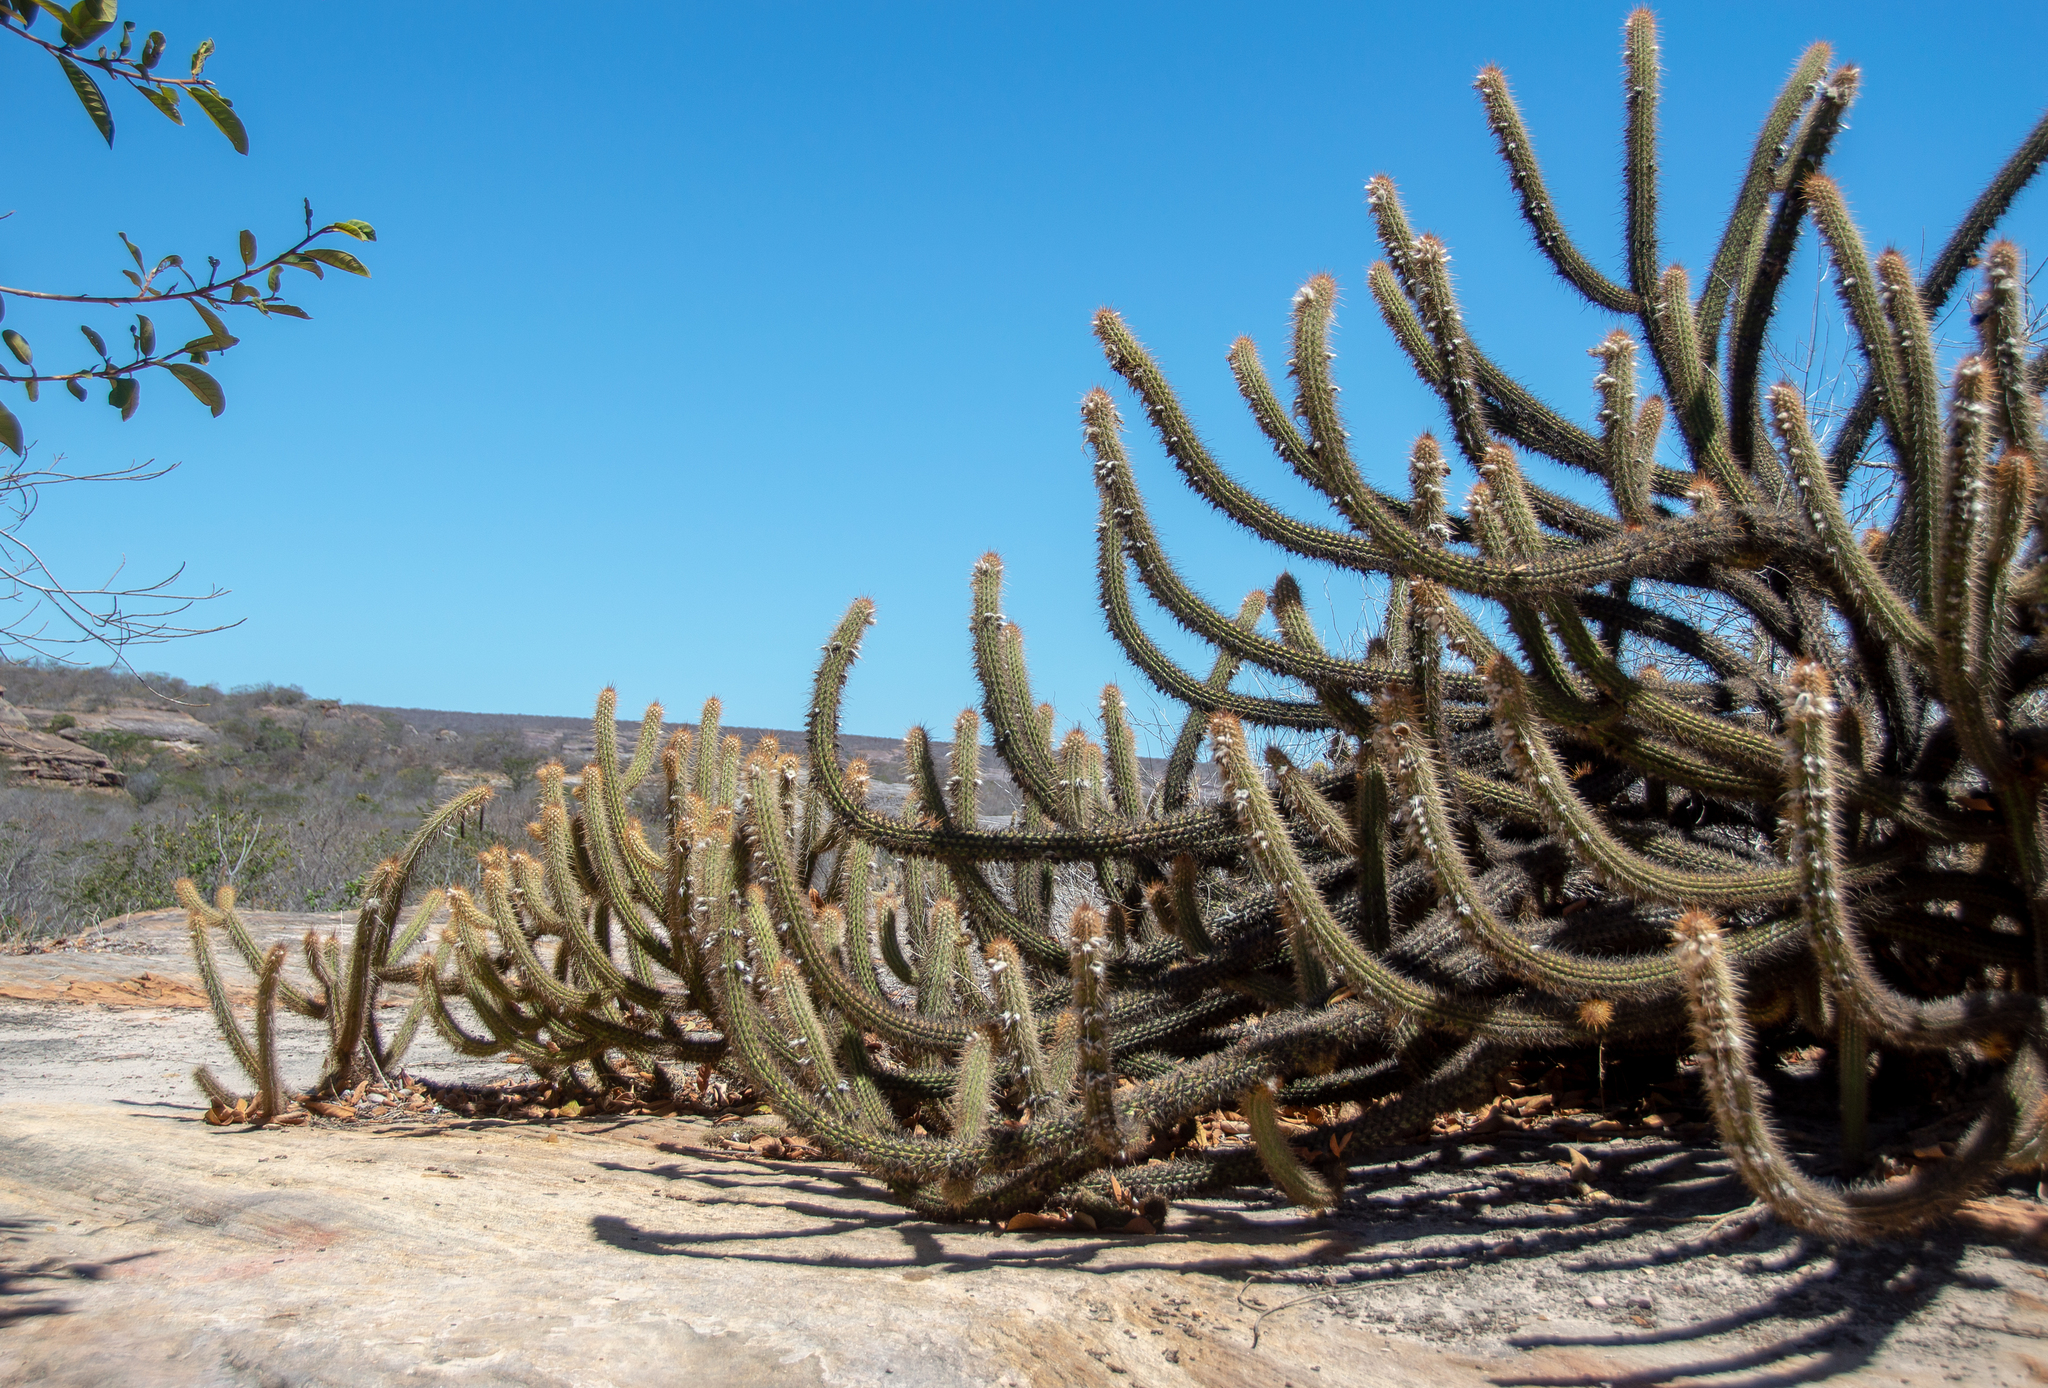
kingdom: Plantae
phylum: Tracheophyta
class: Magnoliopsida
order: Caryophyllales
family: Cactaceae
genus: Xiquexique
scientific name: Xiquexique gounellei
